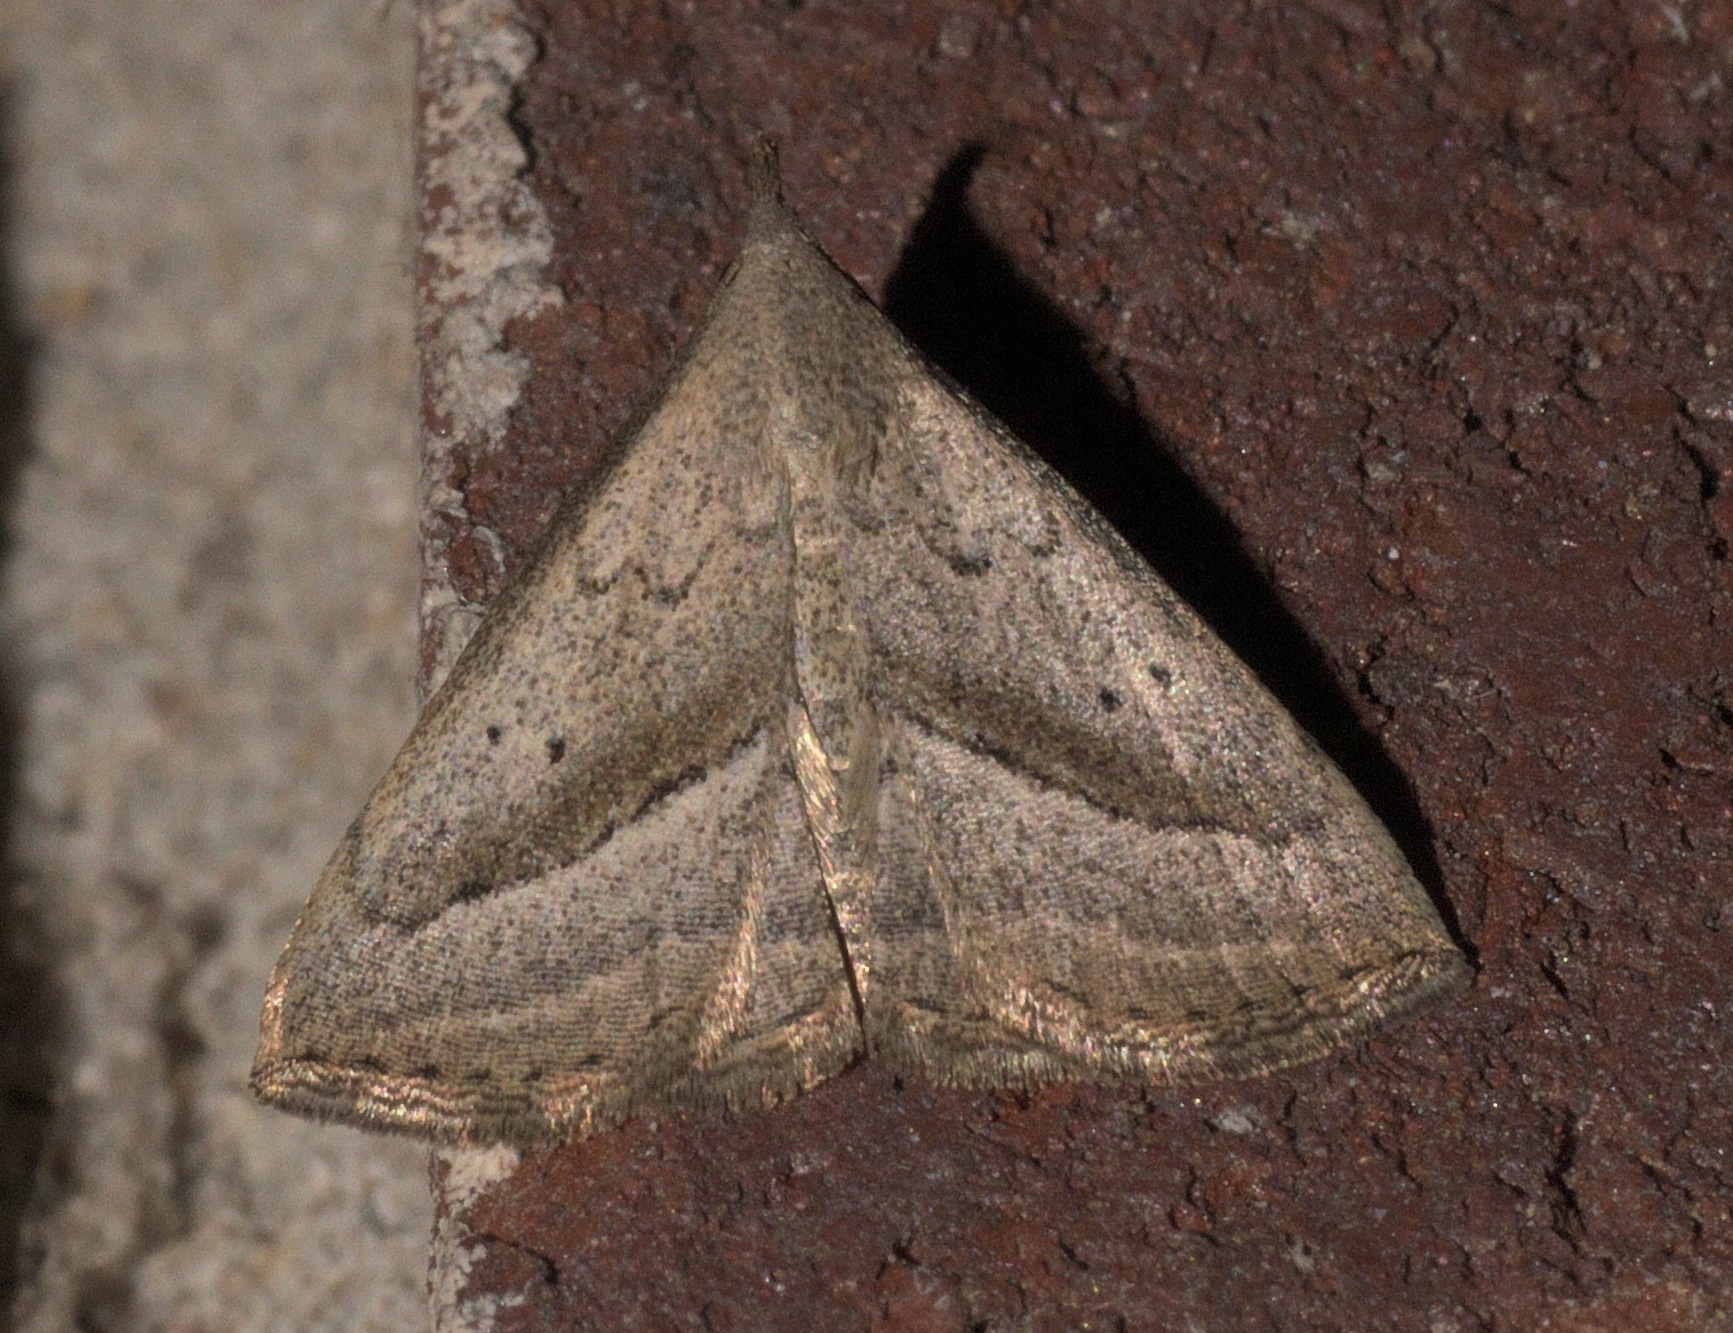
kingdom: Animalia
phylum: Arthropoda
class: Insecta
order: Lepidoptera
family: Erebidae
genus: Macrochilo
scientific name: Macrochilo hypocritalis
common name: Twin-dotted owlet
